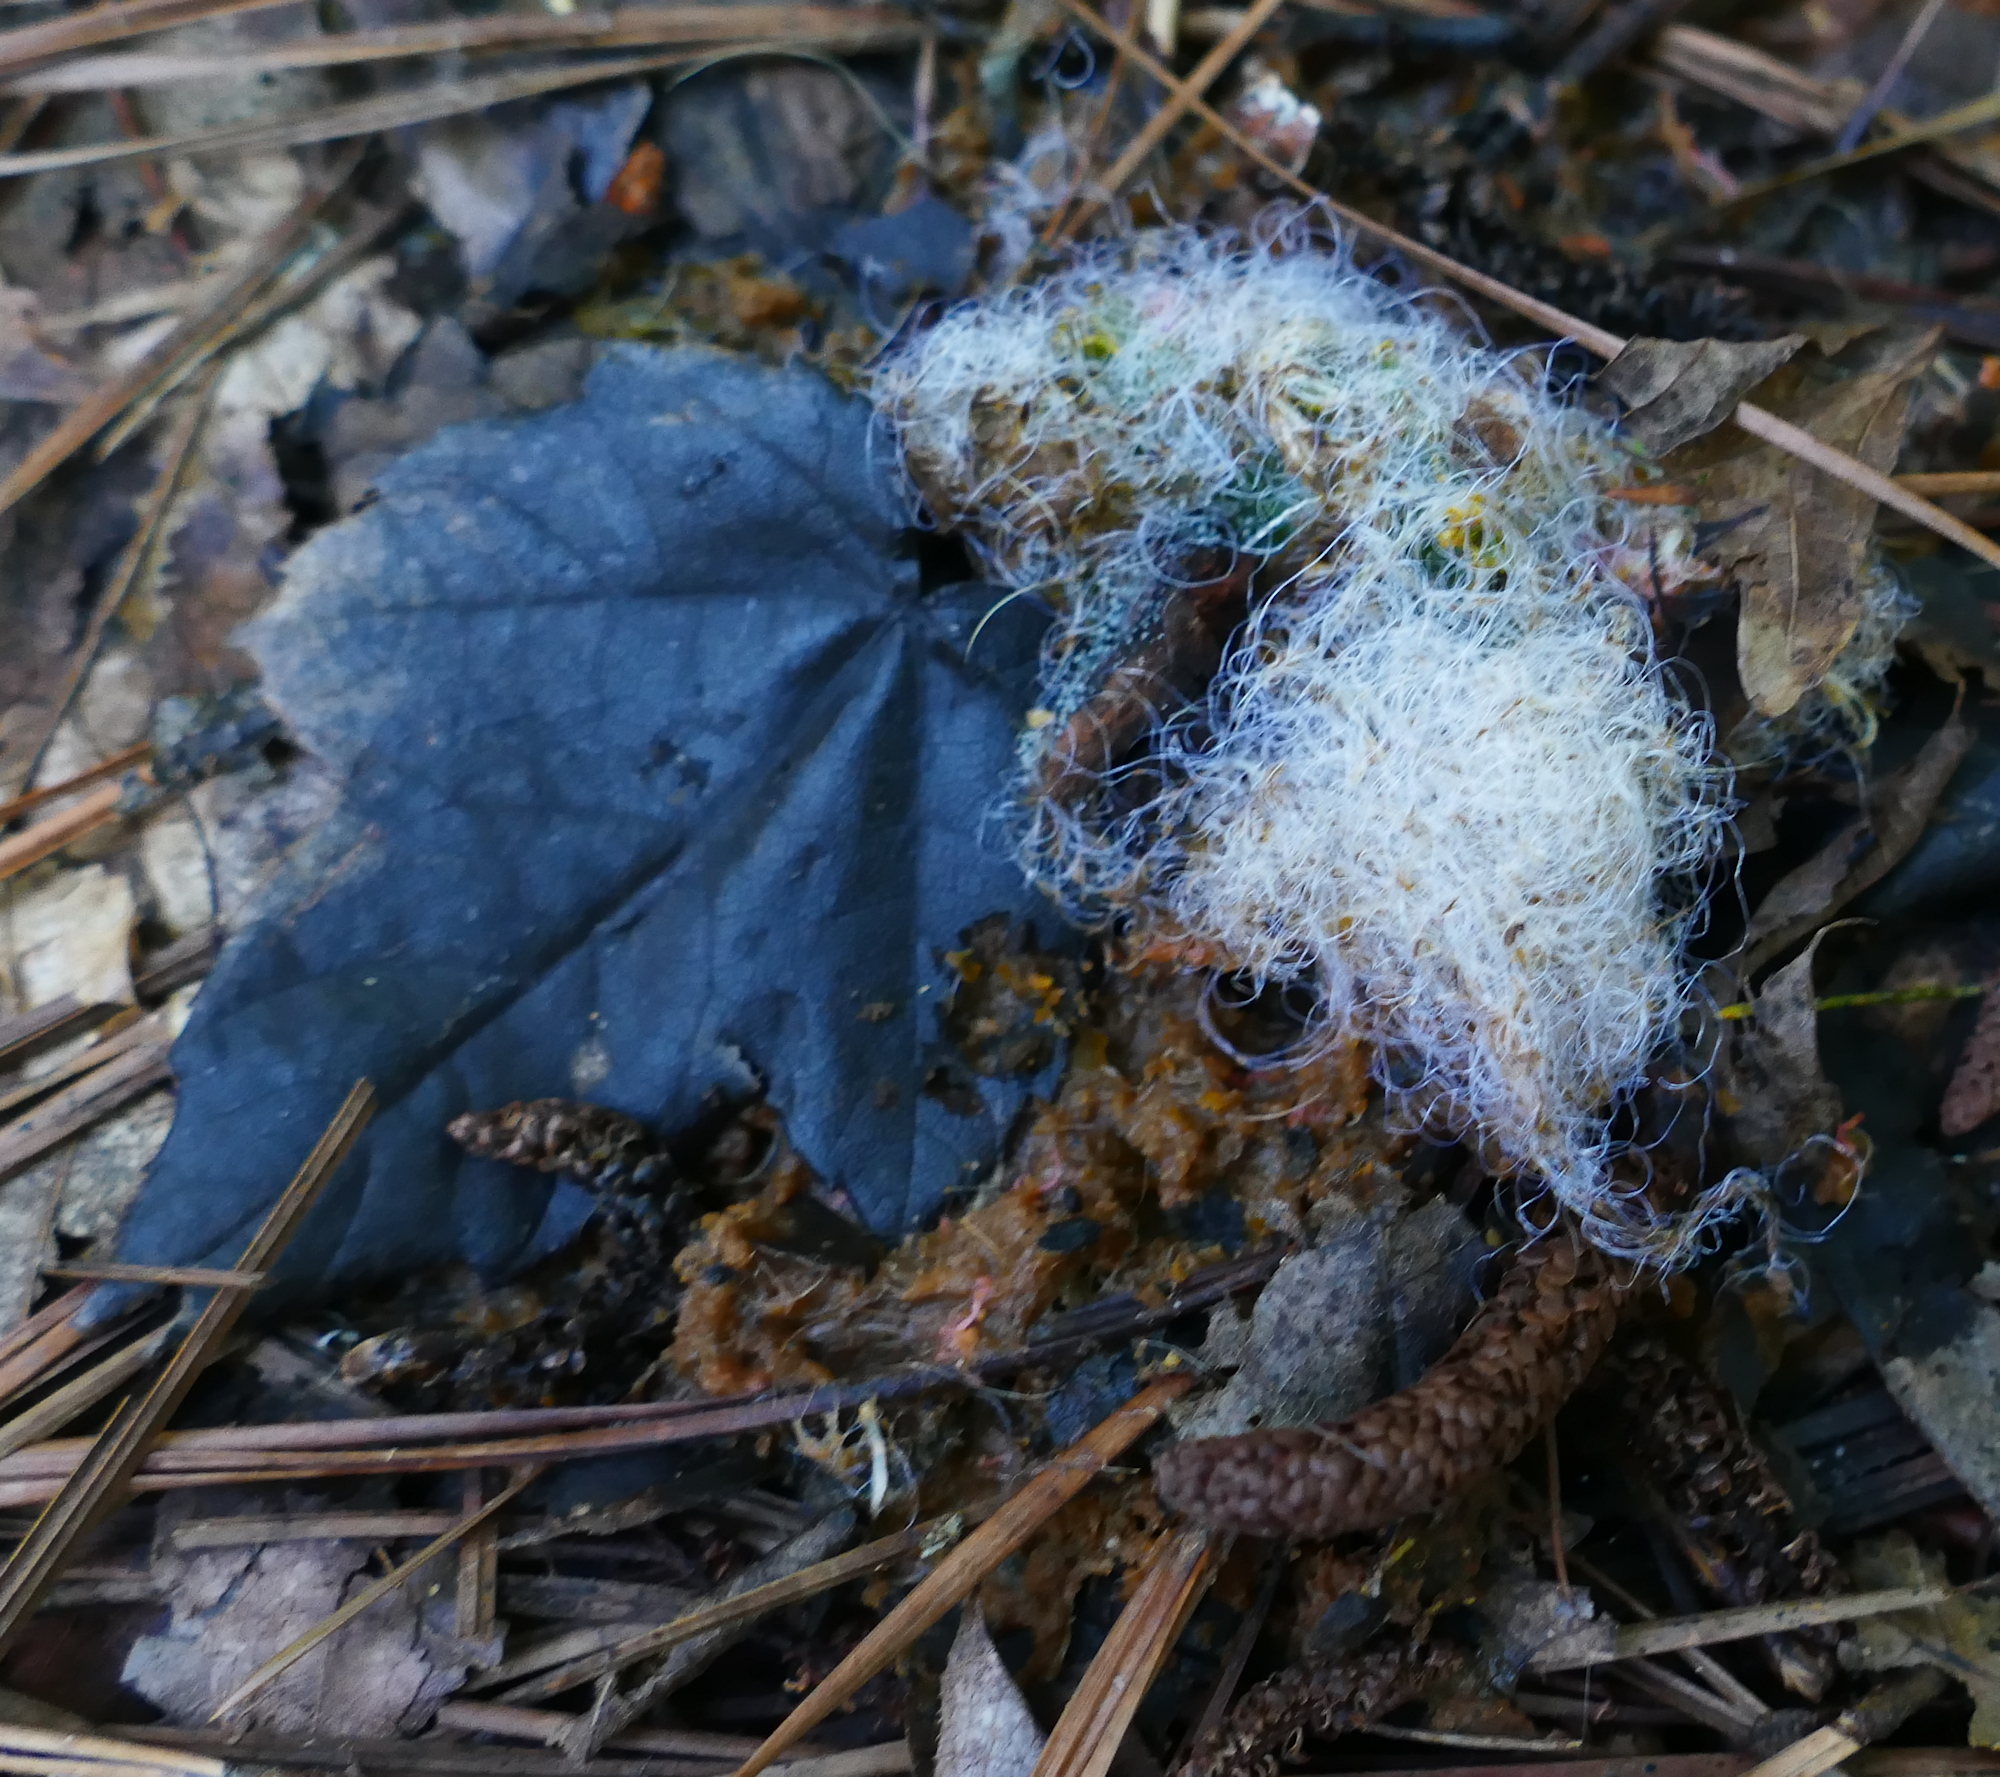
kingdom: Fungi
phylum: Mucoromycota
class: Mucoromycetes
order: Mucorales
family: Rhizopodaceae
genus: Syzygites
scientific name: Syzygites megalocarpus
